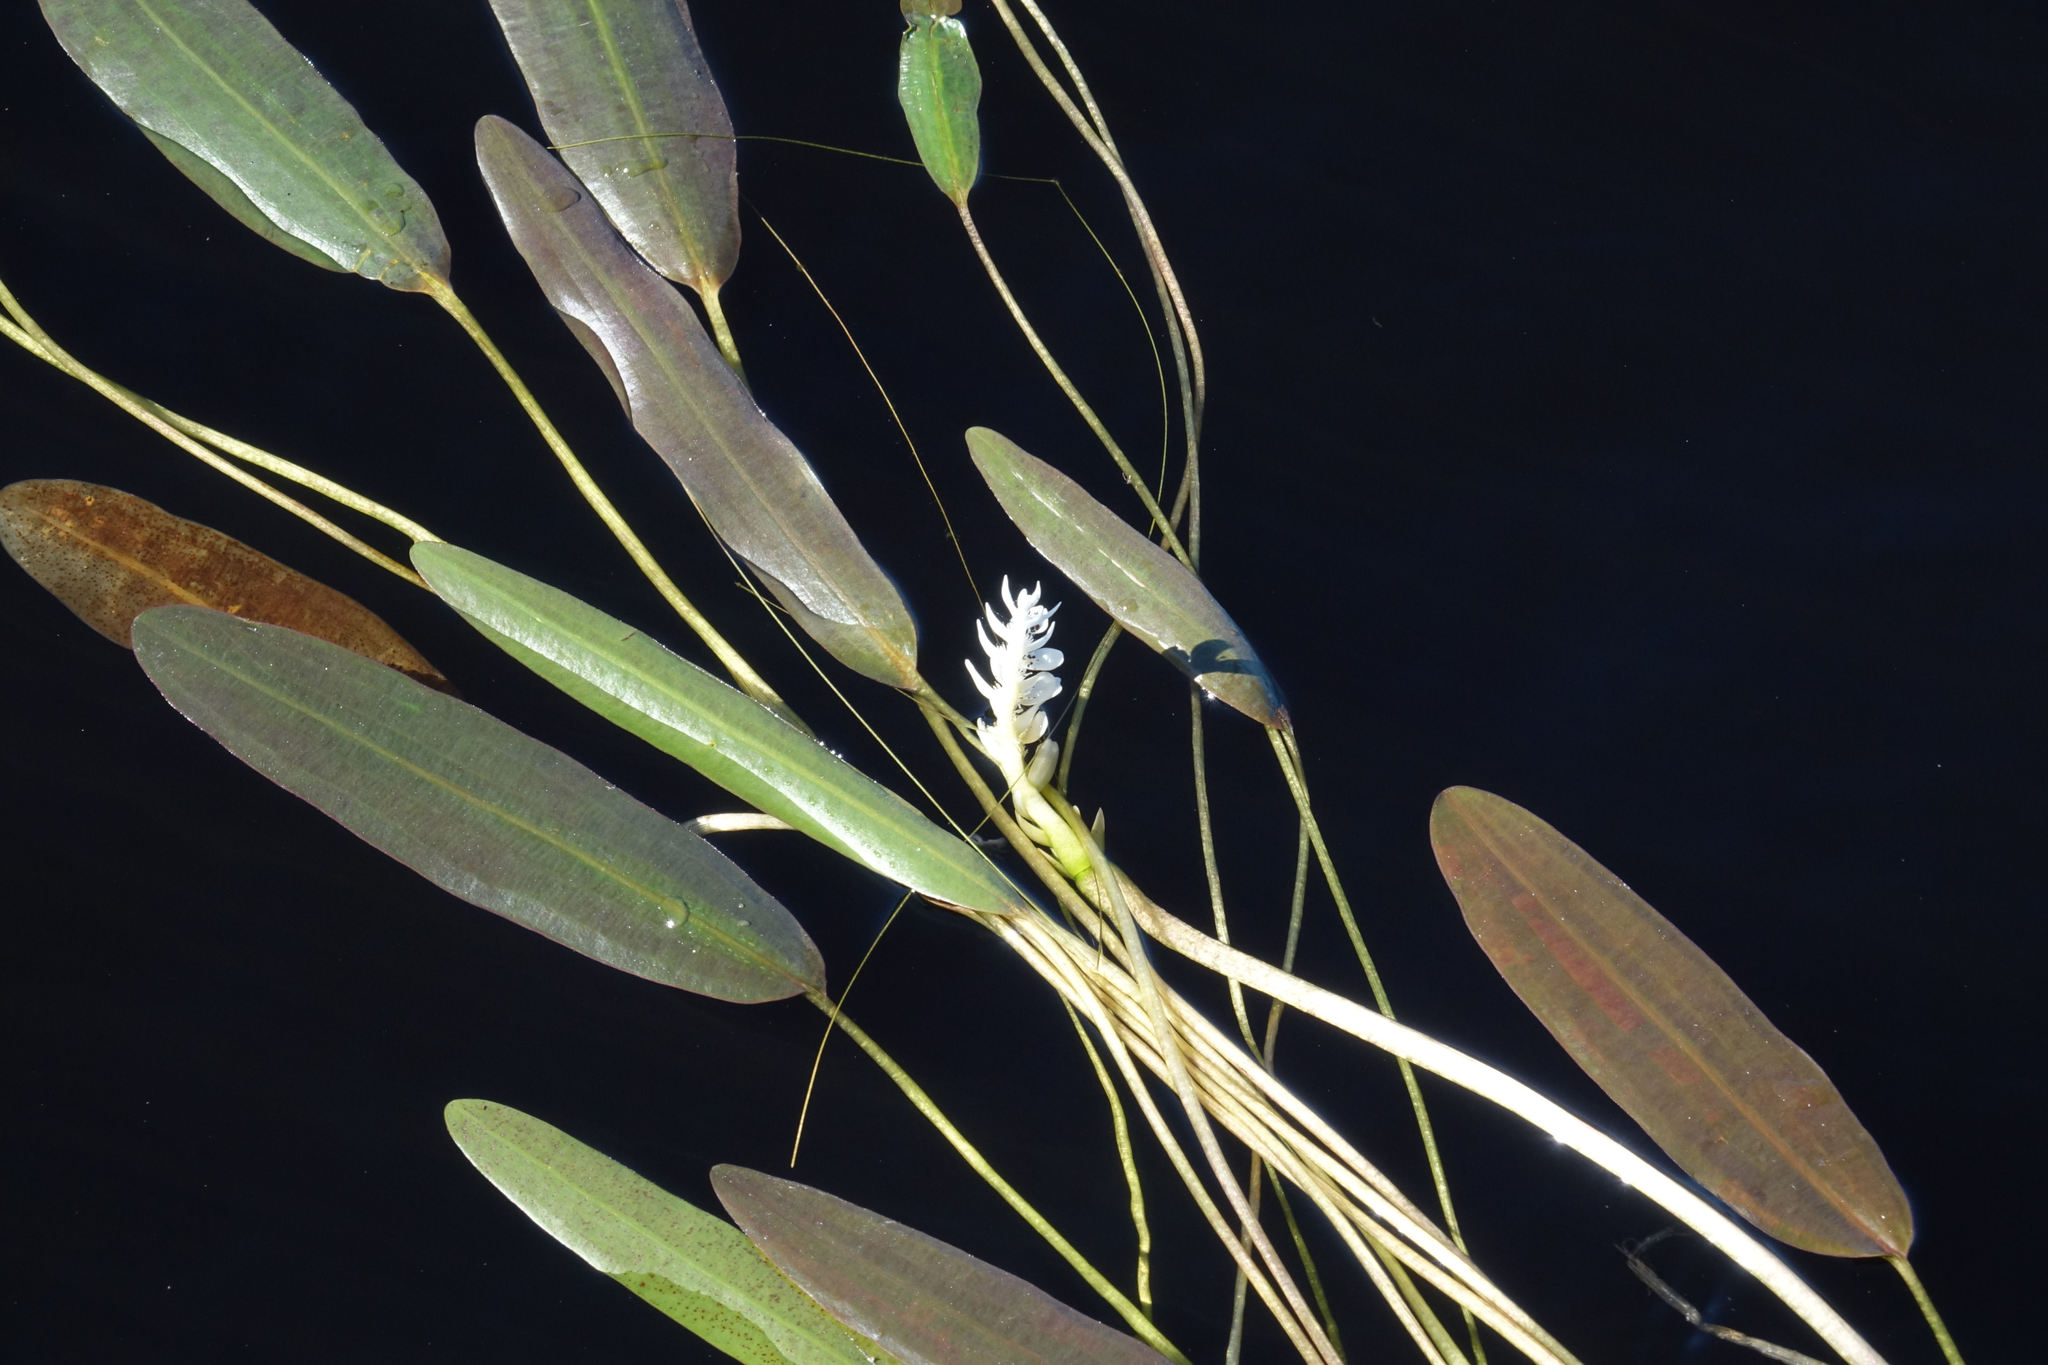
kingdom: Plantae
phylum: Tracheophyta
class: Liliopsida
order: Alismatales
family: Aponogetonaceae
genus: Aponogeton
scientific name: Aponogeton distachyos
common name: Cape-pondweed
